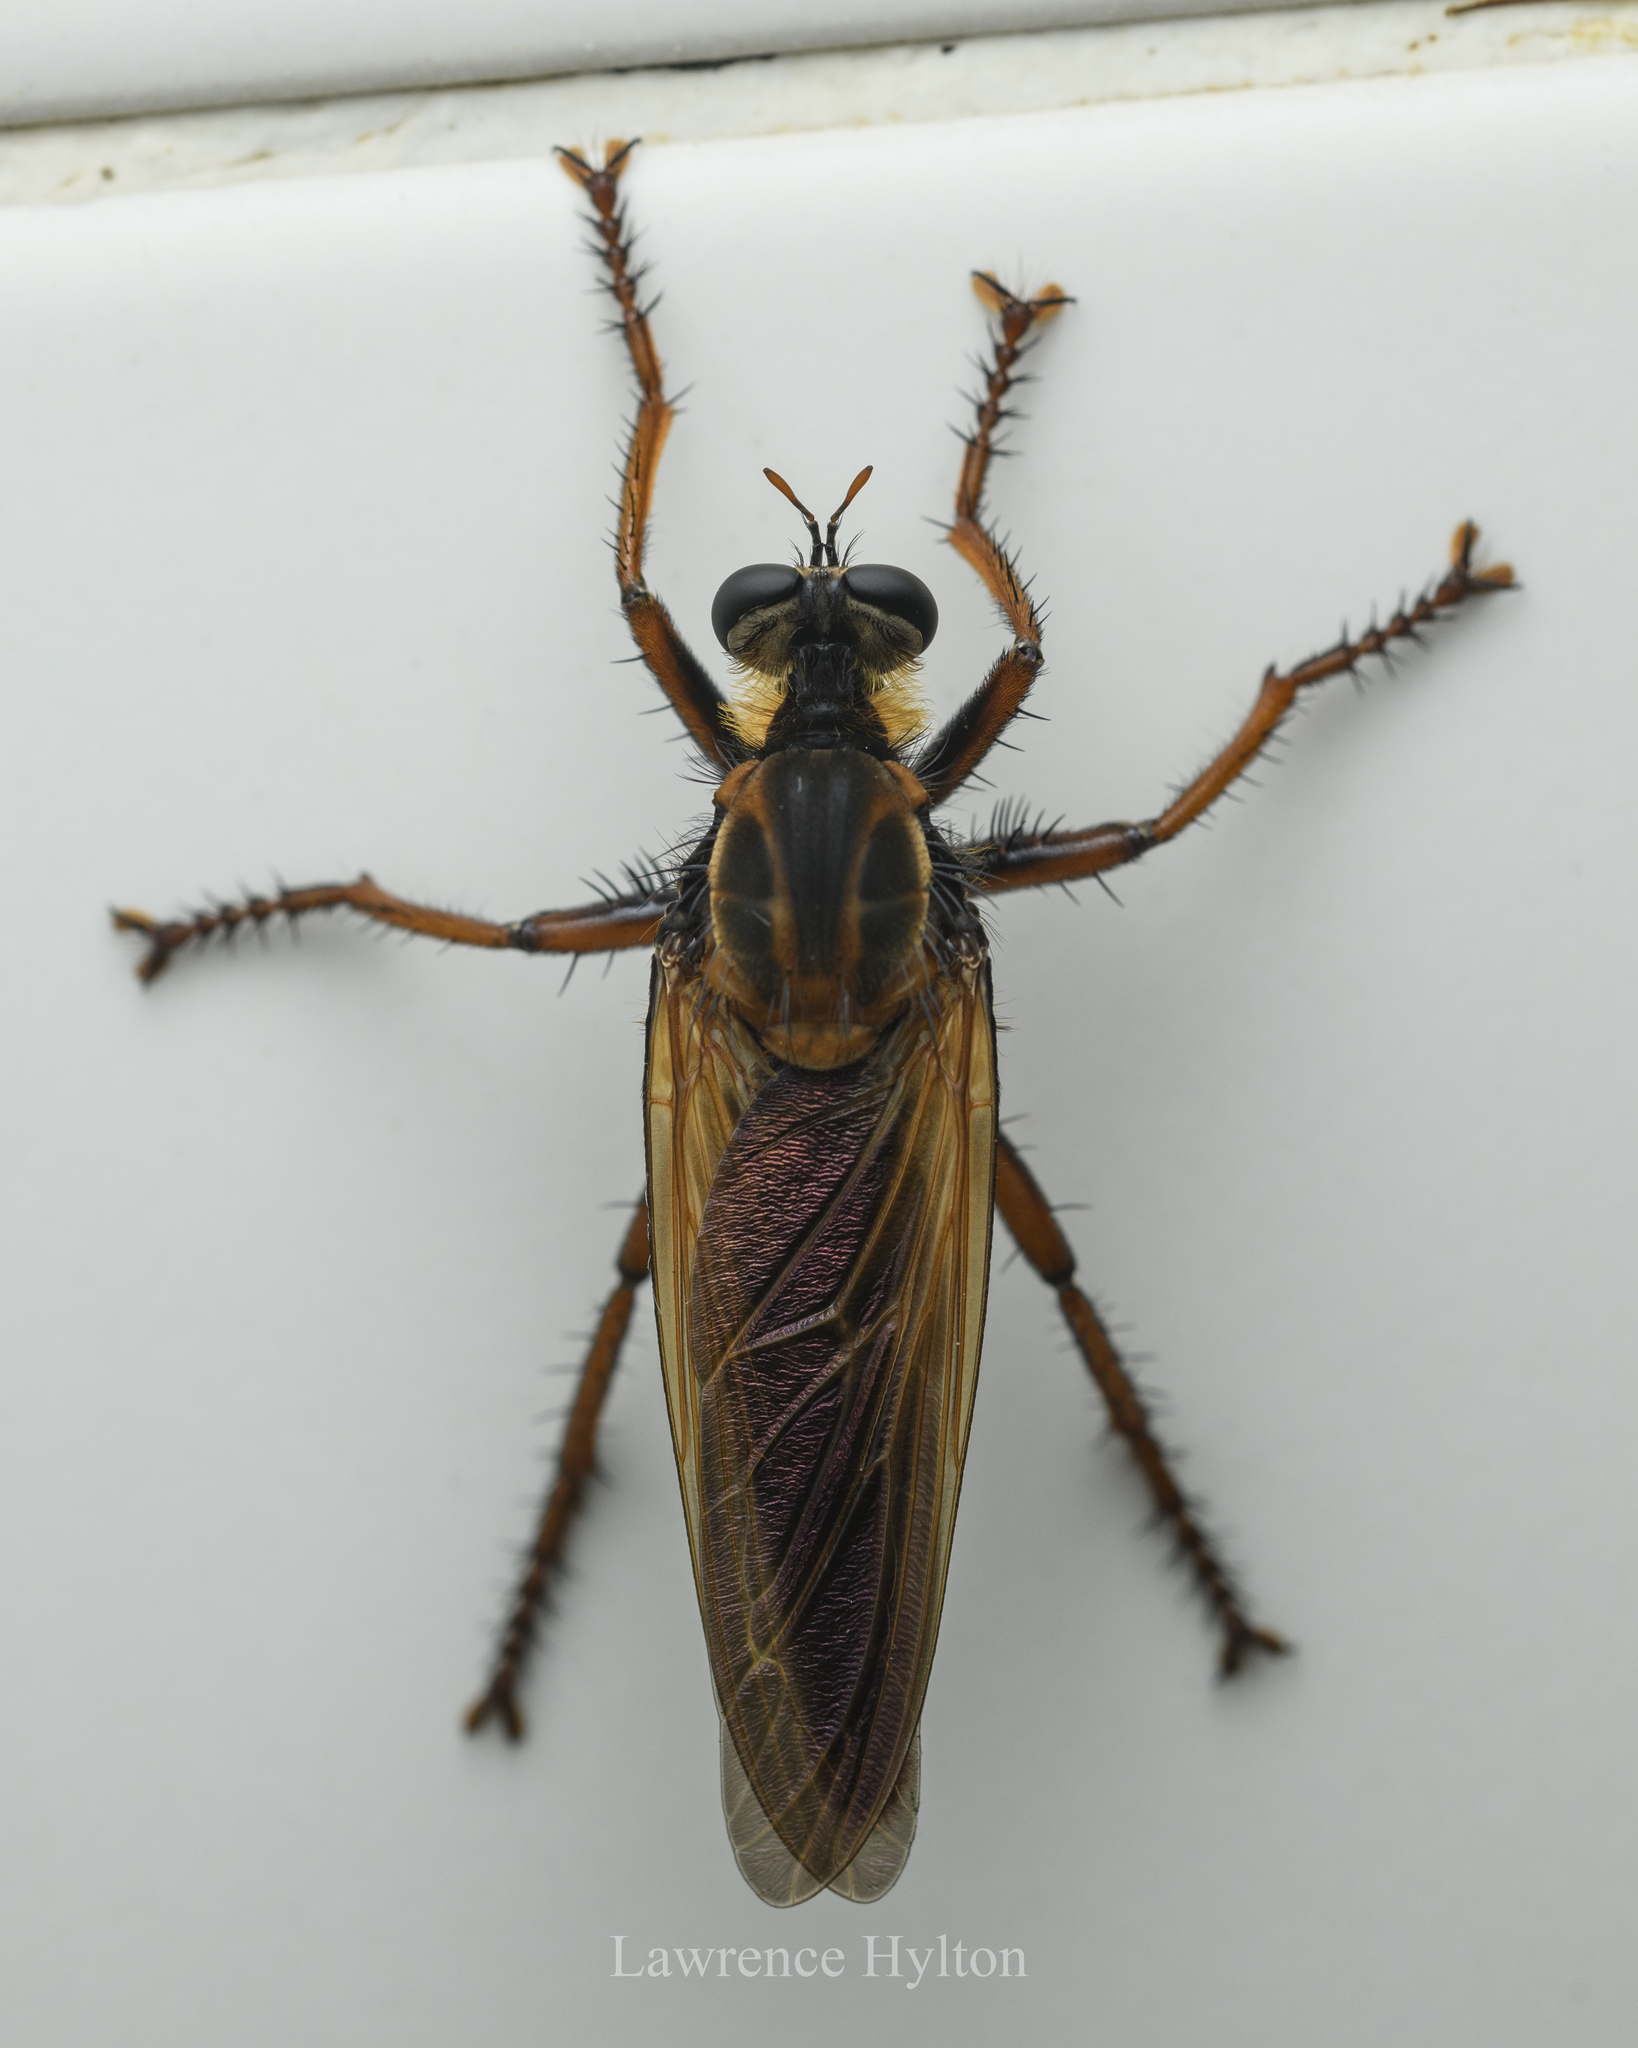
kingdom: Animalia
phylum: Arthropoda
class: Insecta
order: Diptera
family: Asilidae
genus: Microstylum
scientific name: Microstylum dux
